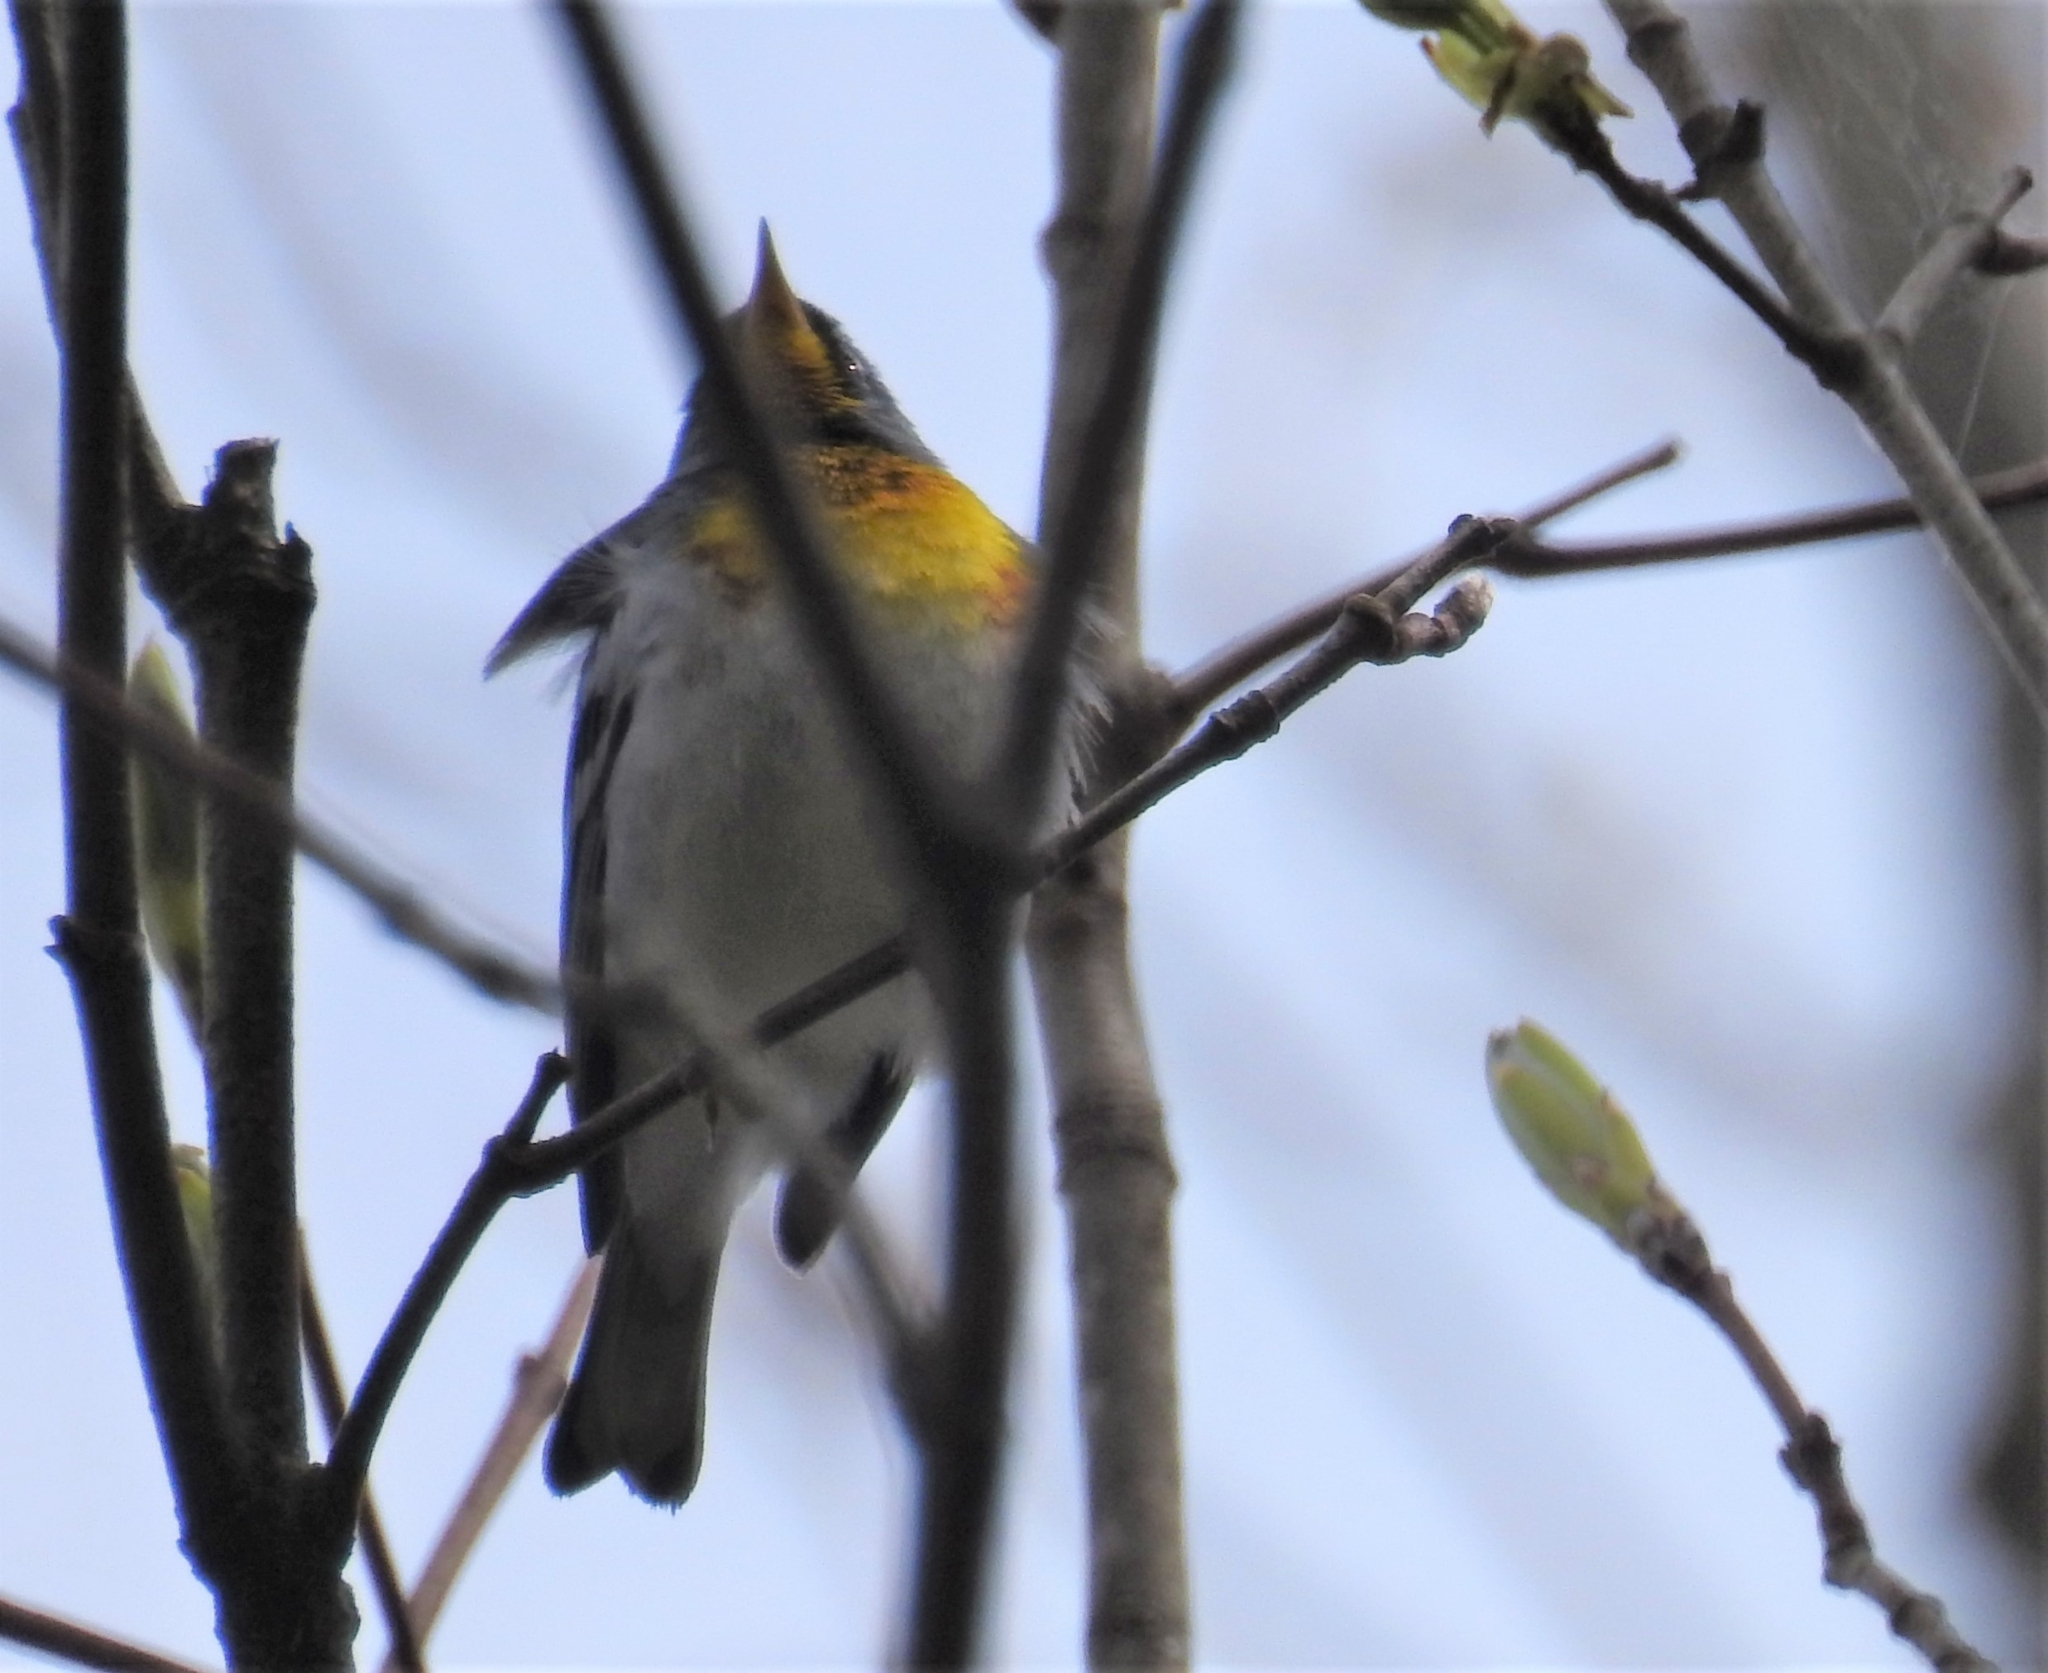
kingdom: Animalia
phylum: Chordata
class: Aves
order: Passeriformes
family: Parulidae
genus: Setophaga
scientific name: Setophaga americana
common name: Northern parula
